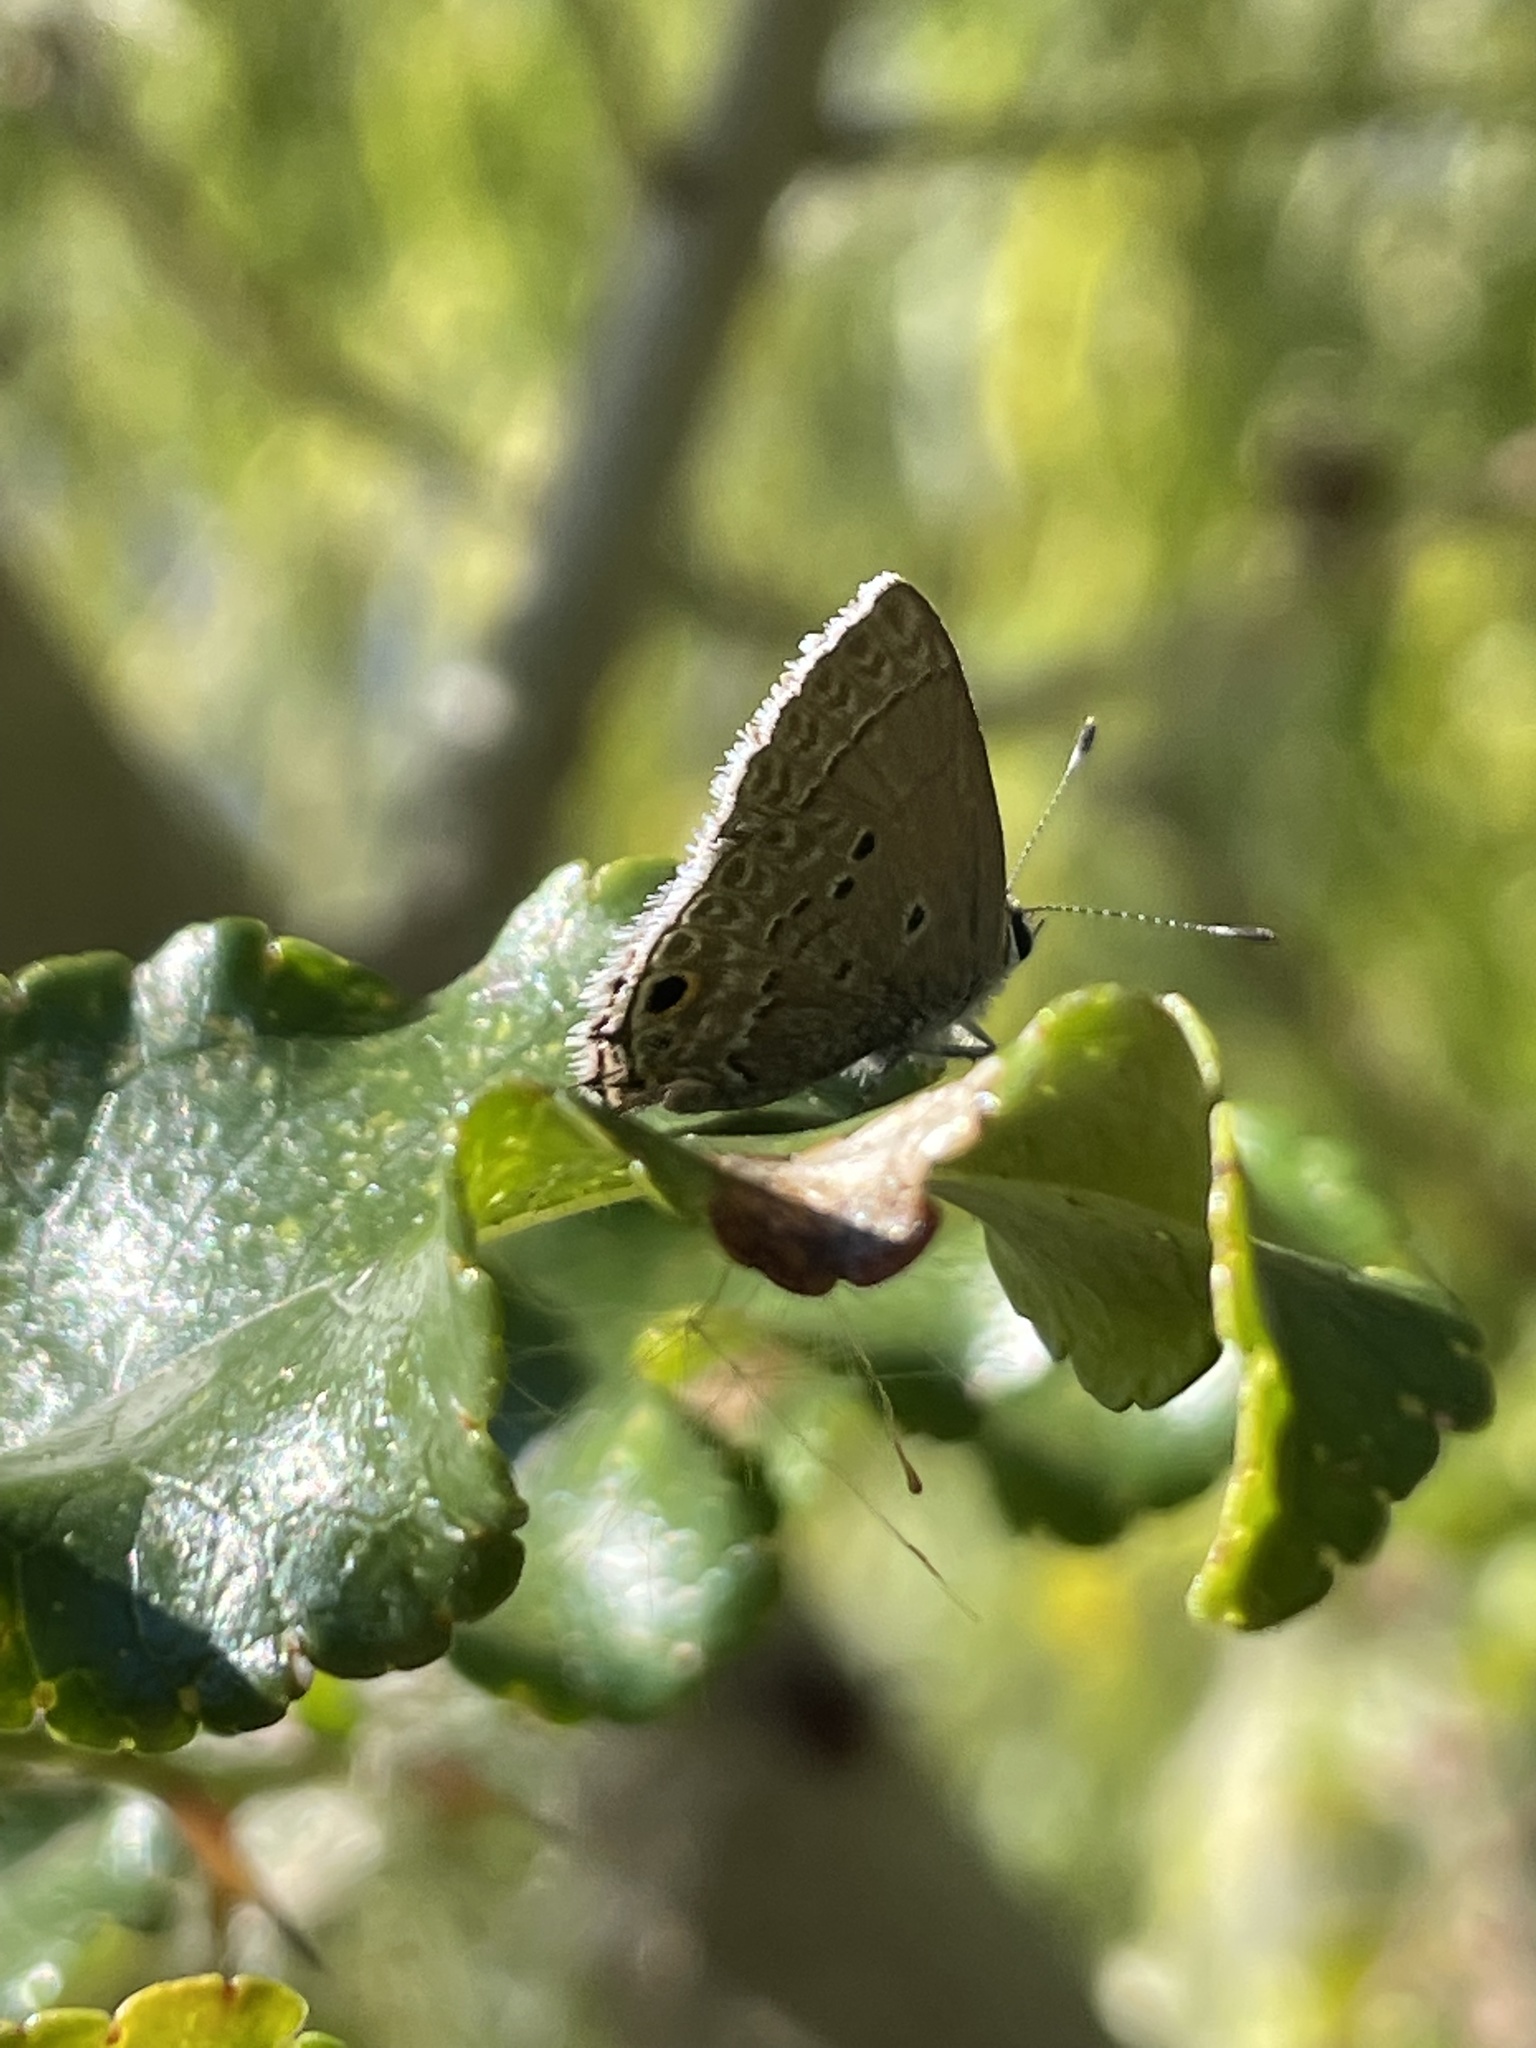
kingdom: Animalia
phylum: Arthropoda
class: Insecta
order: Lepidoptera
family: Lycaenidae
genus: Callicista
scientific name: Callicista columella
